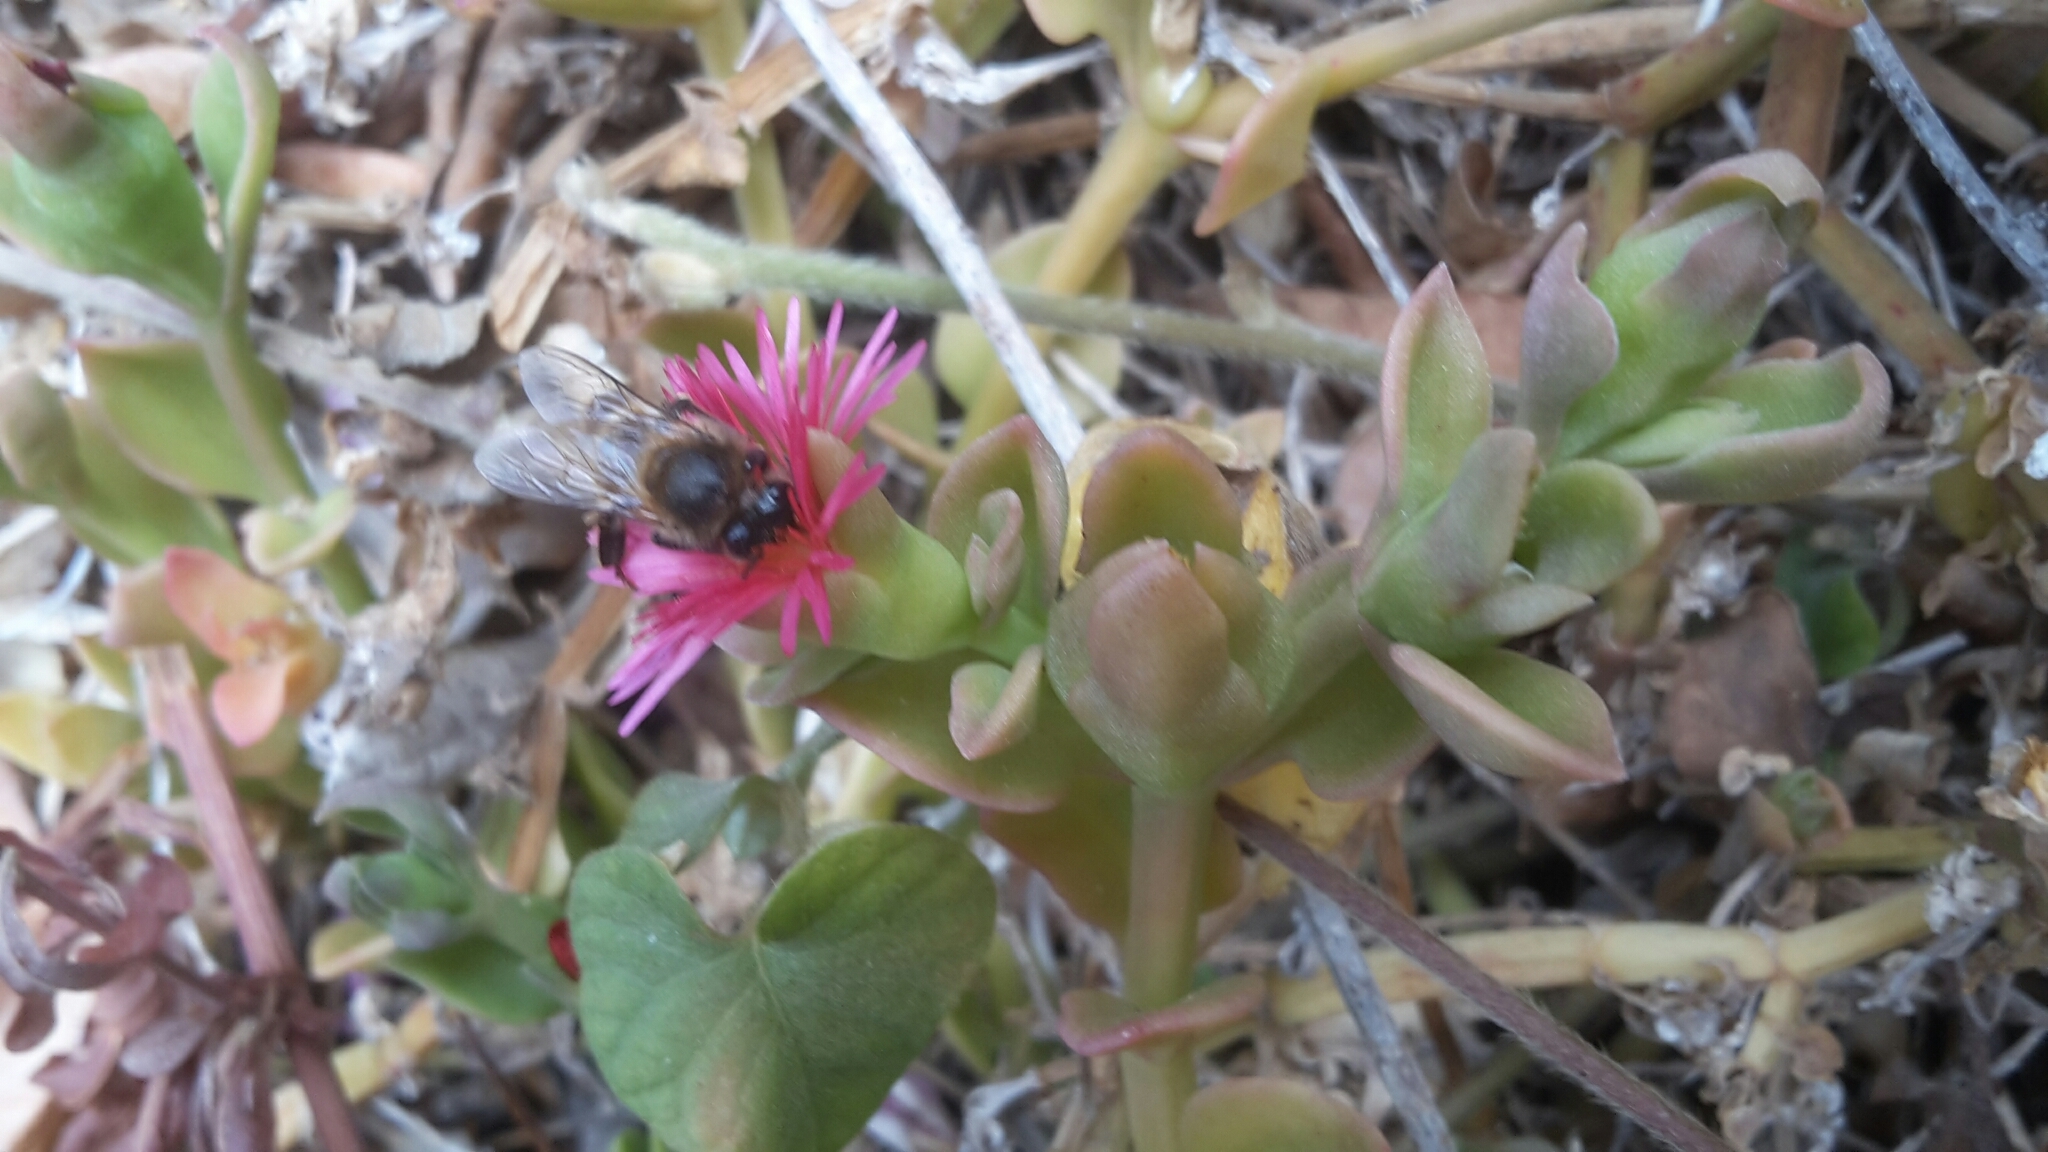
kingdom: Animalia
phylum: Arthropoda
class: Insecta
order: Hymenoptera
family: Apidae
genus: Apis
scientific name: Apis mellifera
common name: Honey bee
